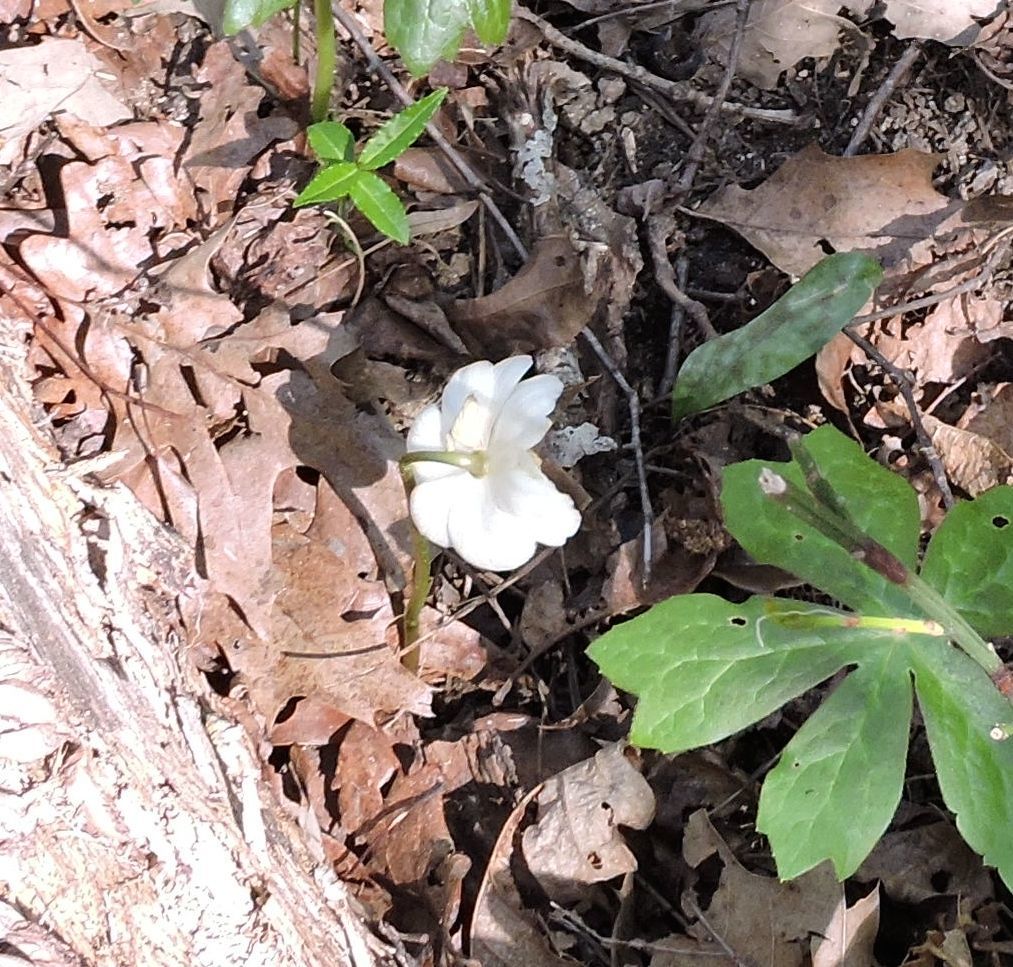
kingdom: Plantae
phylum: Tracheophyta
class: Magnoliopsida
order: Ranunculales
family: Berberidaceae
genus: Podophyllum
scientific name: Podophyllum peltatum
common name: Wild mandrake
